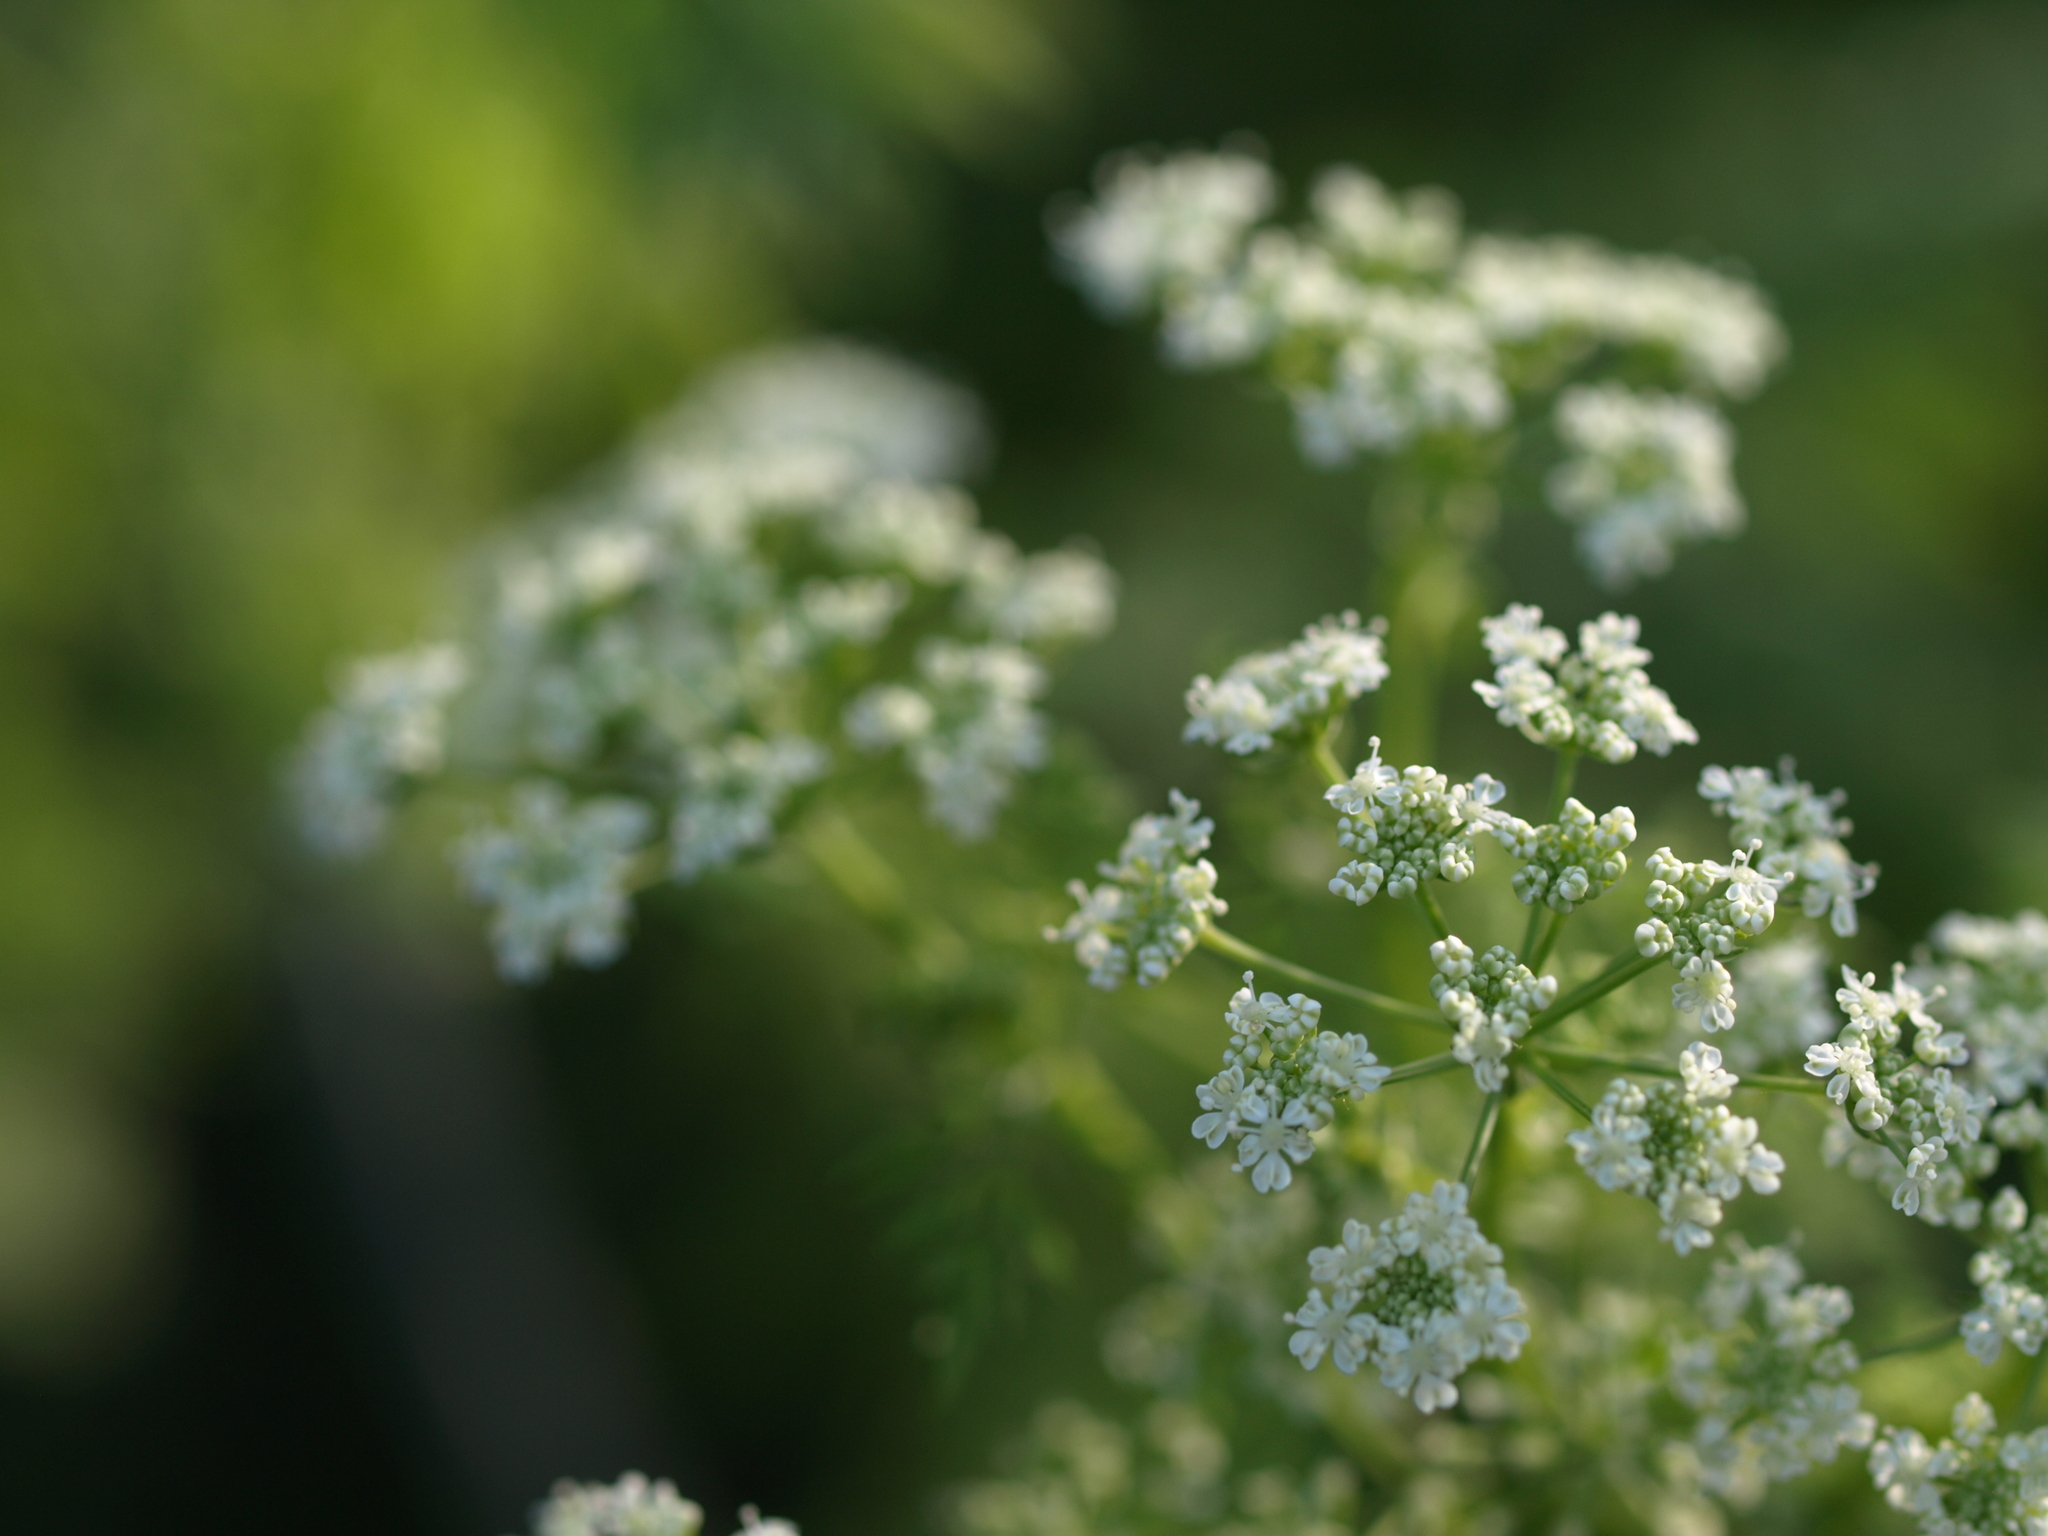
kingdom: Plantae
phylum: Tracheophyta
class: Magnoliopsida
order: Apiales
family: Apiaceae
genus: Conium
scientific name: Conium maculatum
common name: Hemlock
